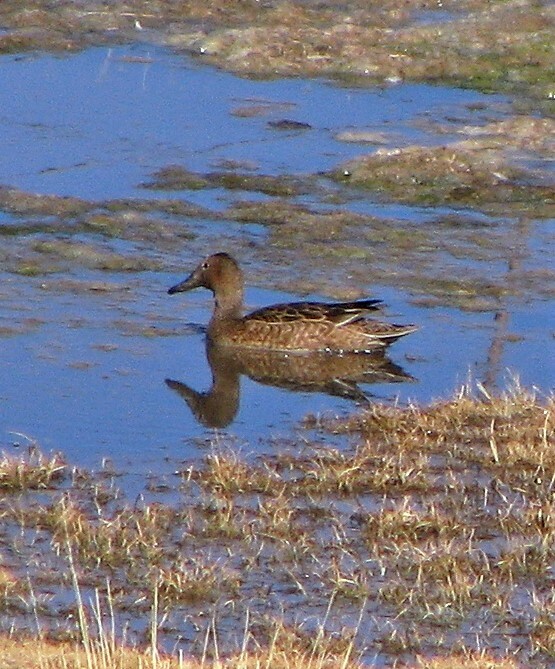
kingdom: Animalia
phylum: Chordata
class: Aves
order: Anseriformes
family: Anatidae
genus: Spatula
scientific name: Spatula cyanoptera
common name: Cinnamon teal
